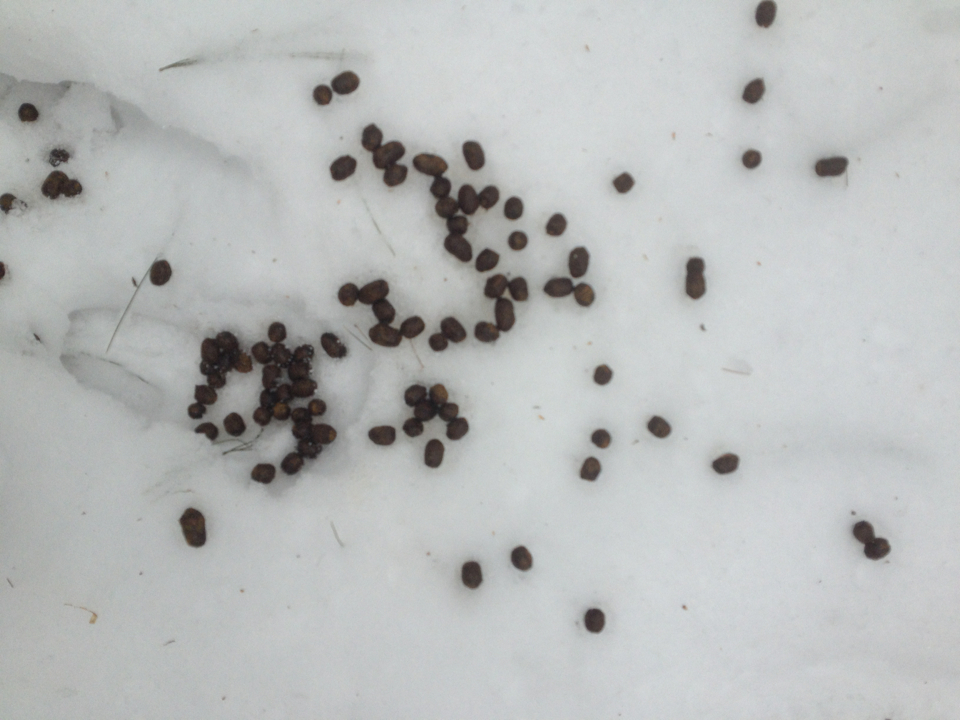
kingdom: Animalia
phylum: Chordata
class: Mammalia
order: Artiodactyla
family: Cervidae
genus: Odocoileus
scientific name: Odocoileus virginianus
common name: White-tailed deer
